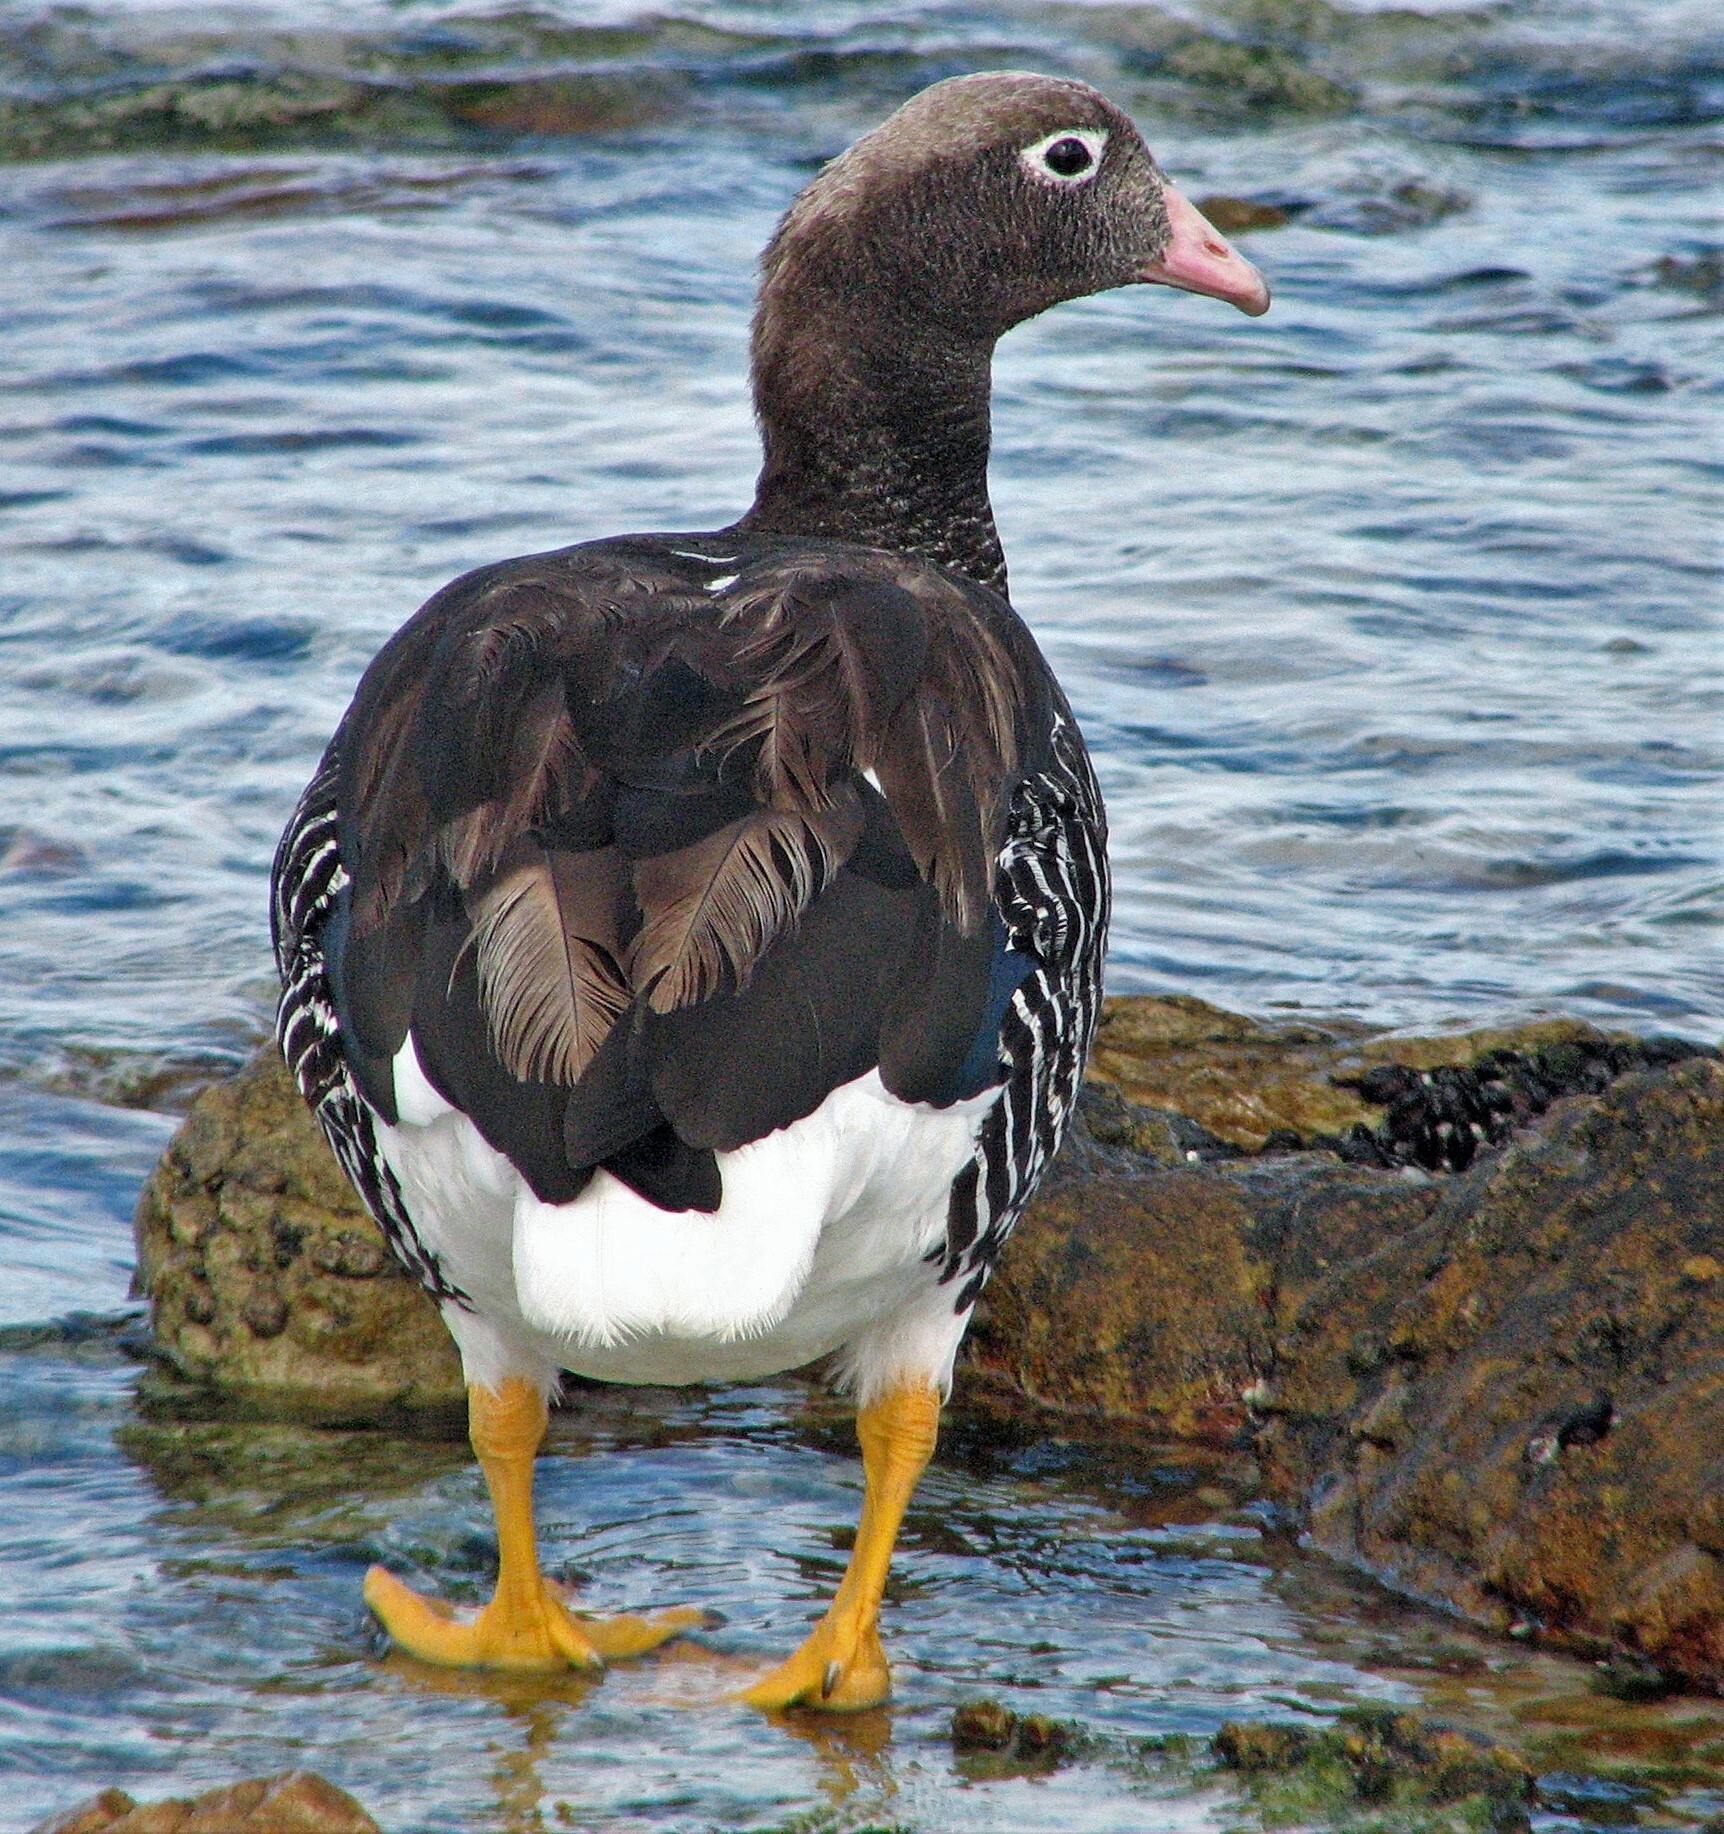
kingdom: Animalia
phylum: Chordata
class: Aves
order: Anseriformes
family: Anatidae
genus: Chloephaga
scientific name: Chloephaga hybrida
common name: Kelp goose
